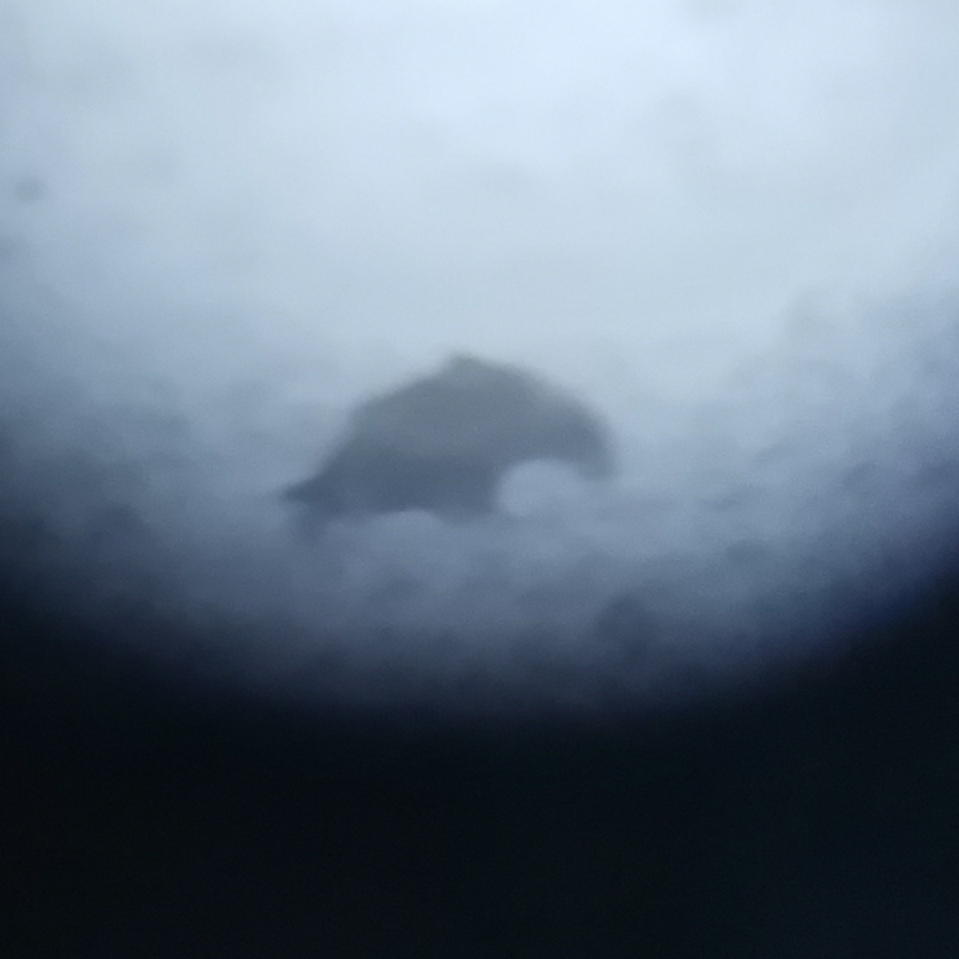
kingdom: Animalia
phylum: Chordata
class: Aves
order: Accipitriformes
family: Accipitridae
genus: Haliaeetus
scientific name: Haliaeetus albicilla
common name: White-tailed eagle
